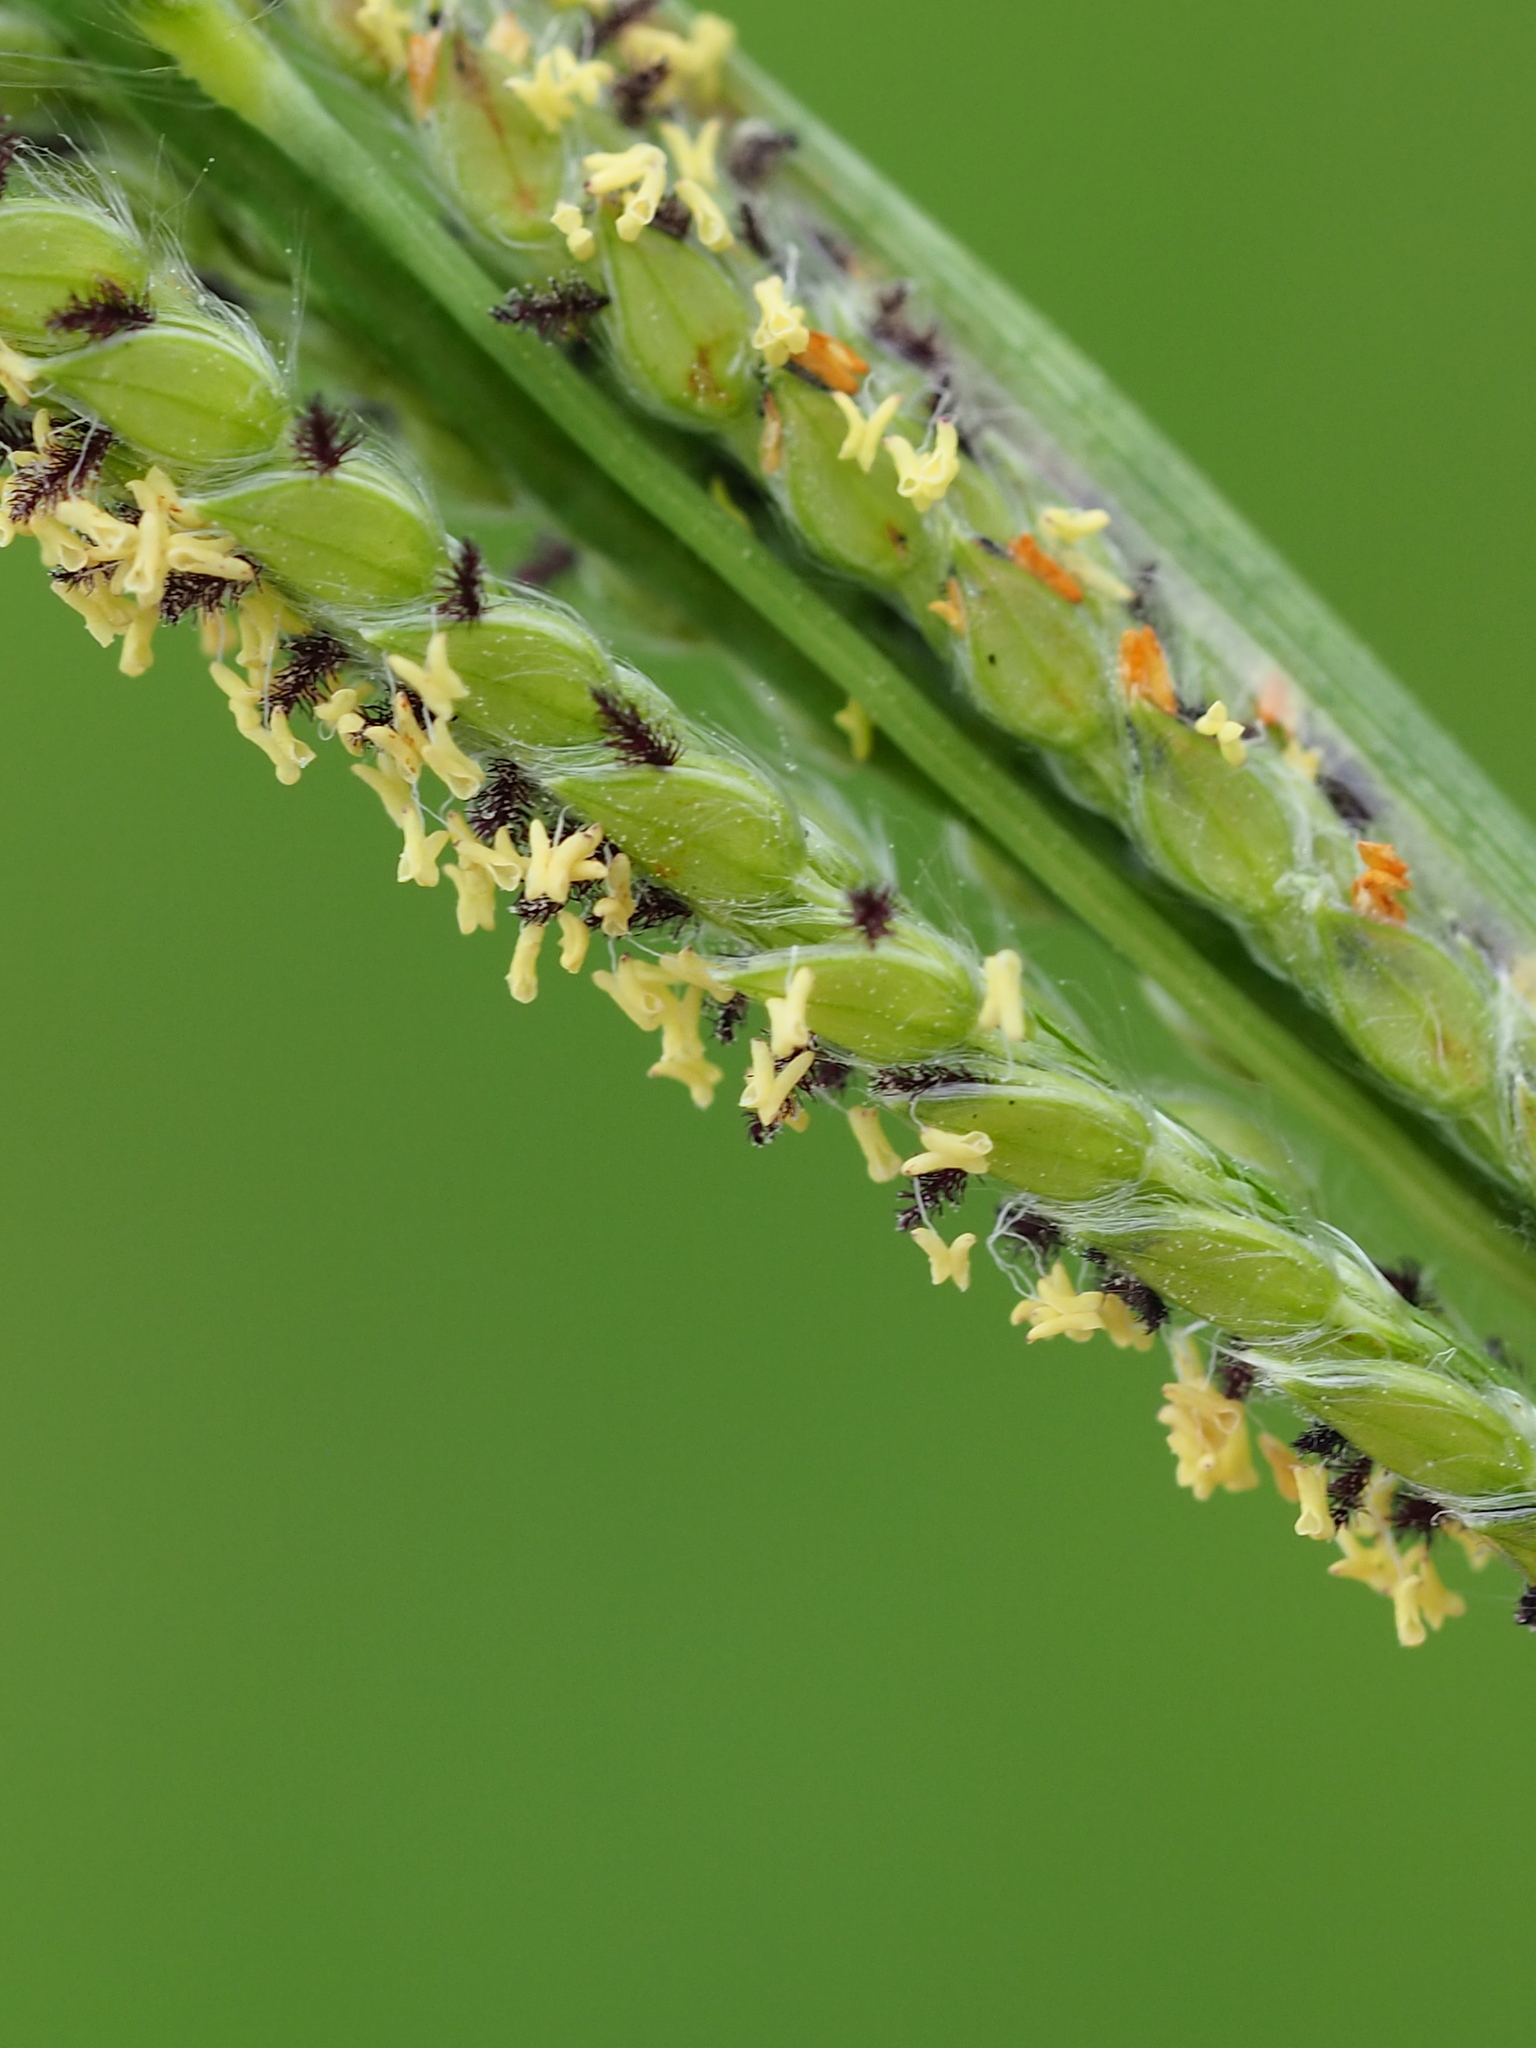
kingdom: Plantae
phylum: Tracheophyta
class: Liliopsida
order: Poales
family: Poaceae
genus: Paspalum
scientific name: Paspalum urvillei
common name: Vasey's grass
